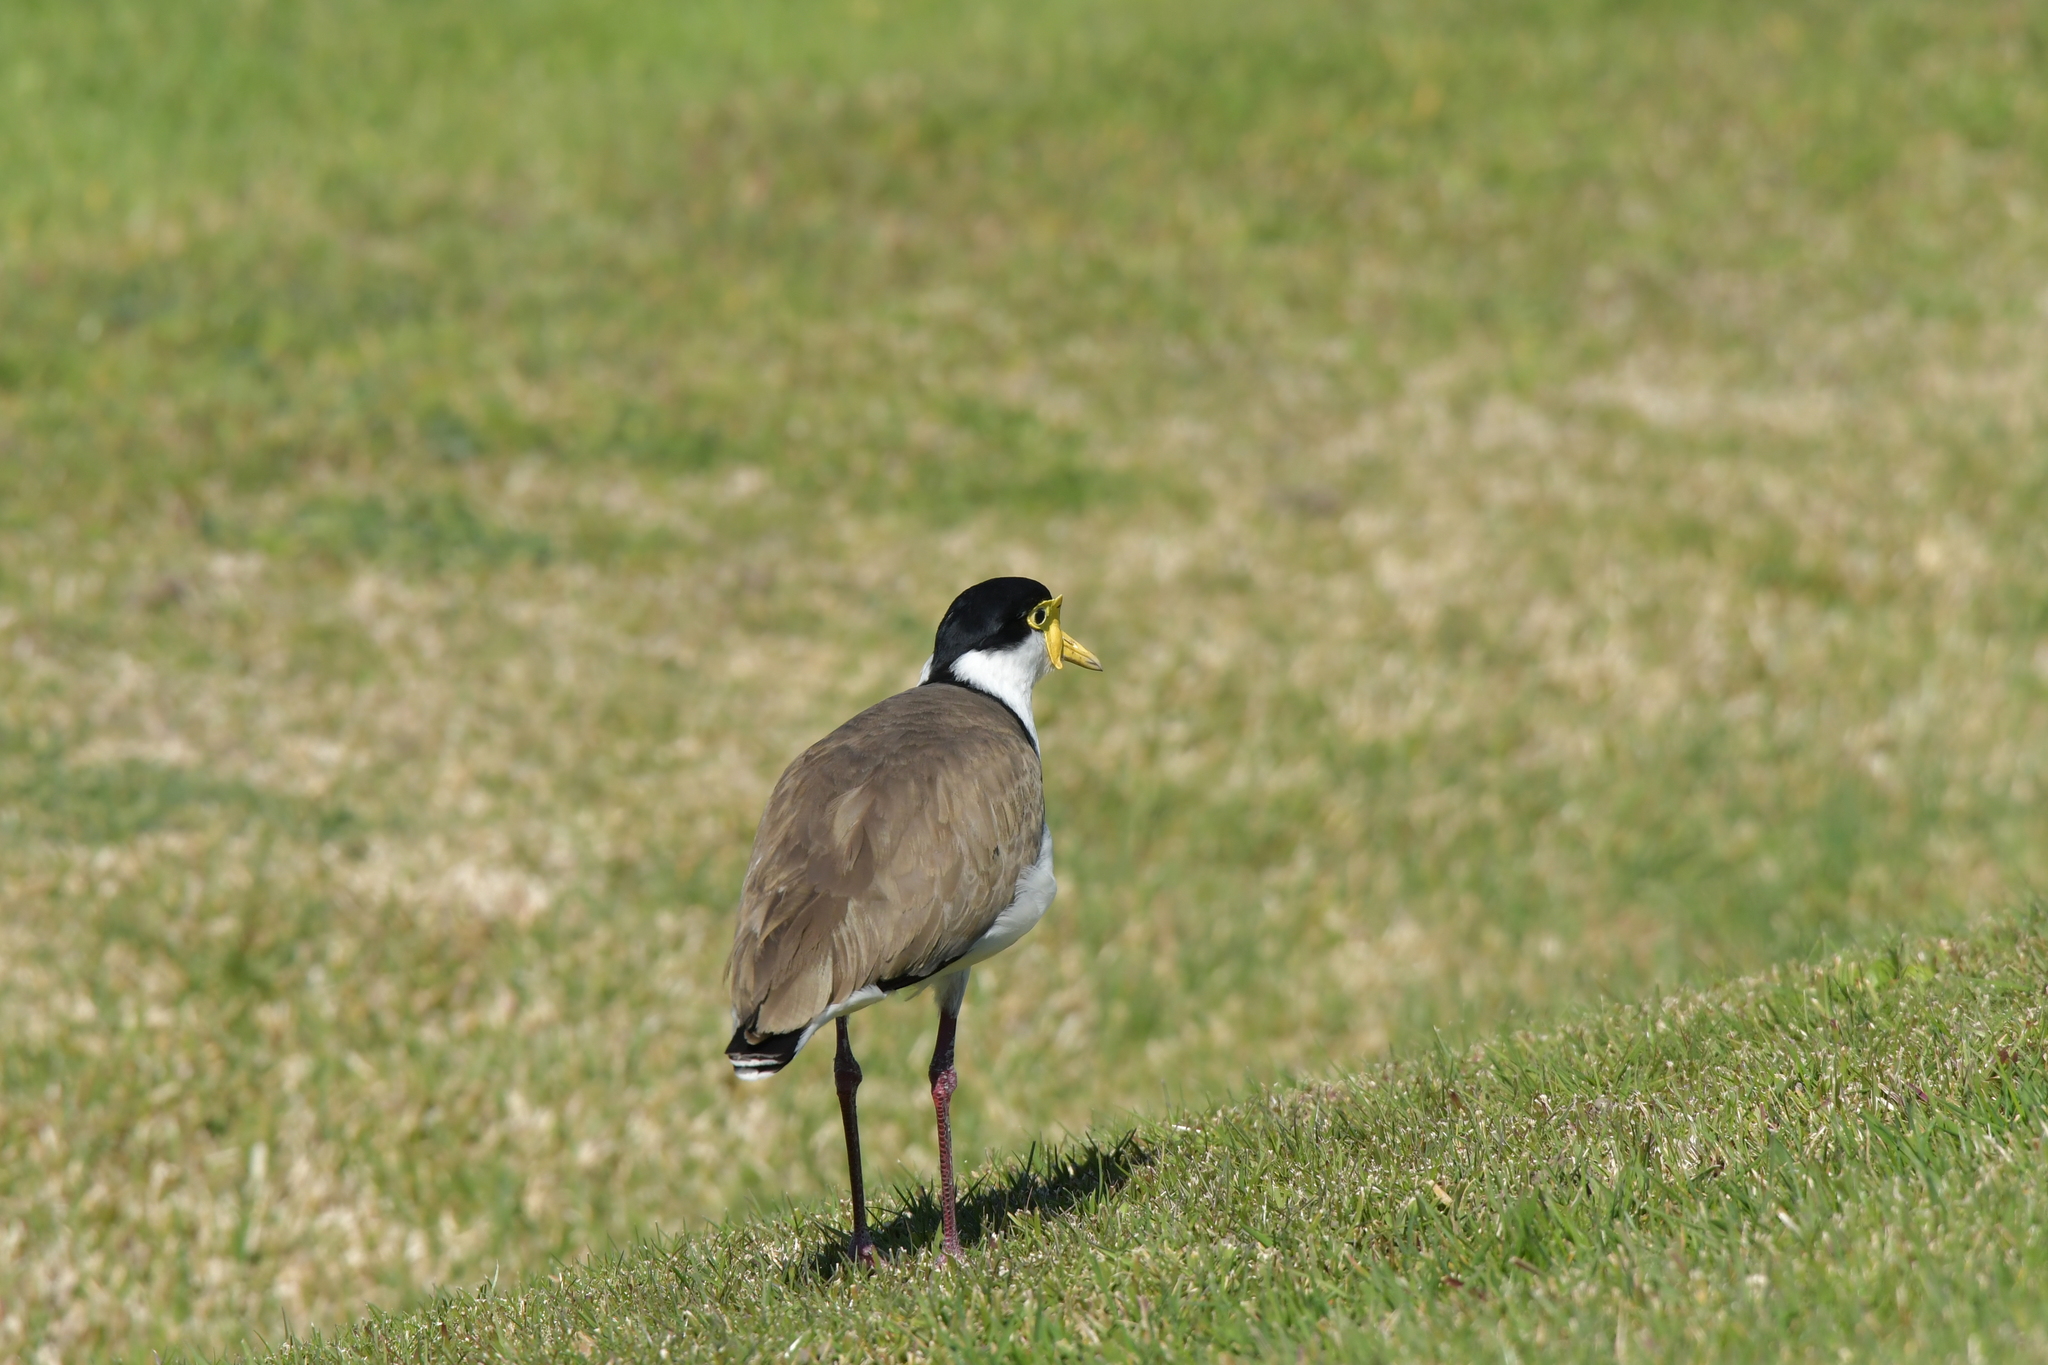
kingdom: Animalia
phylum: Chordata
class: Aves
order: Charadriiformes
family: Charadriidae
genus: Vanellus
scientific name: Vanellus miles
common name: Masked lapwing
